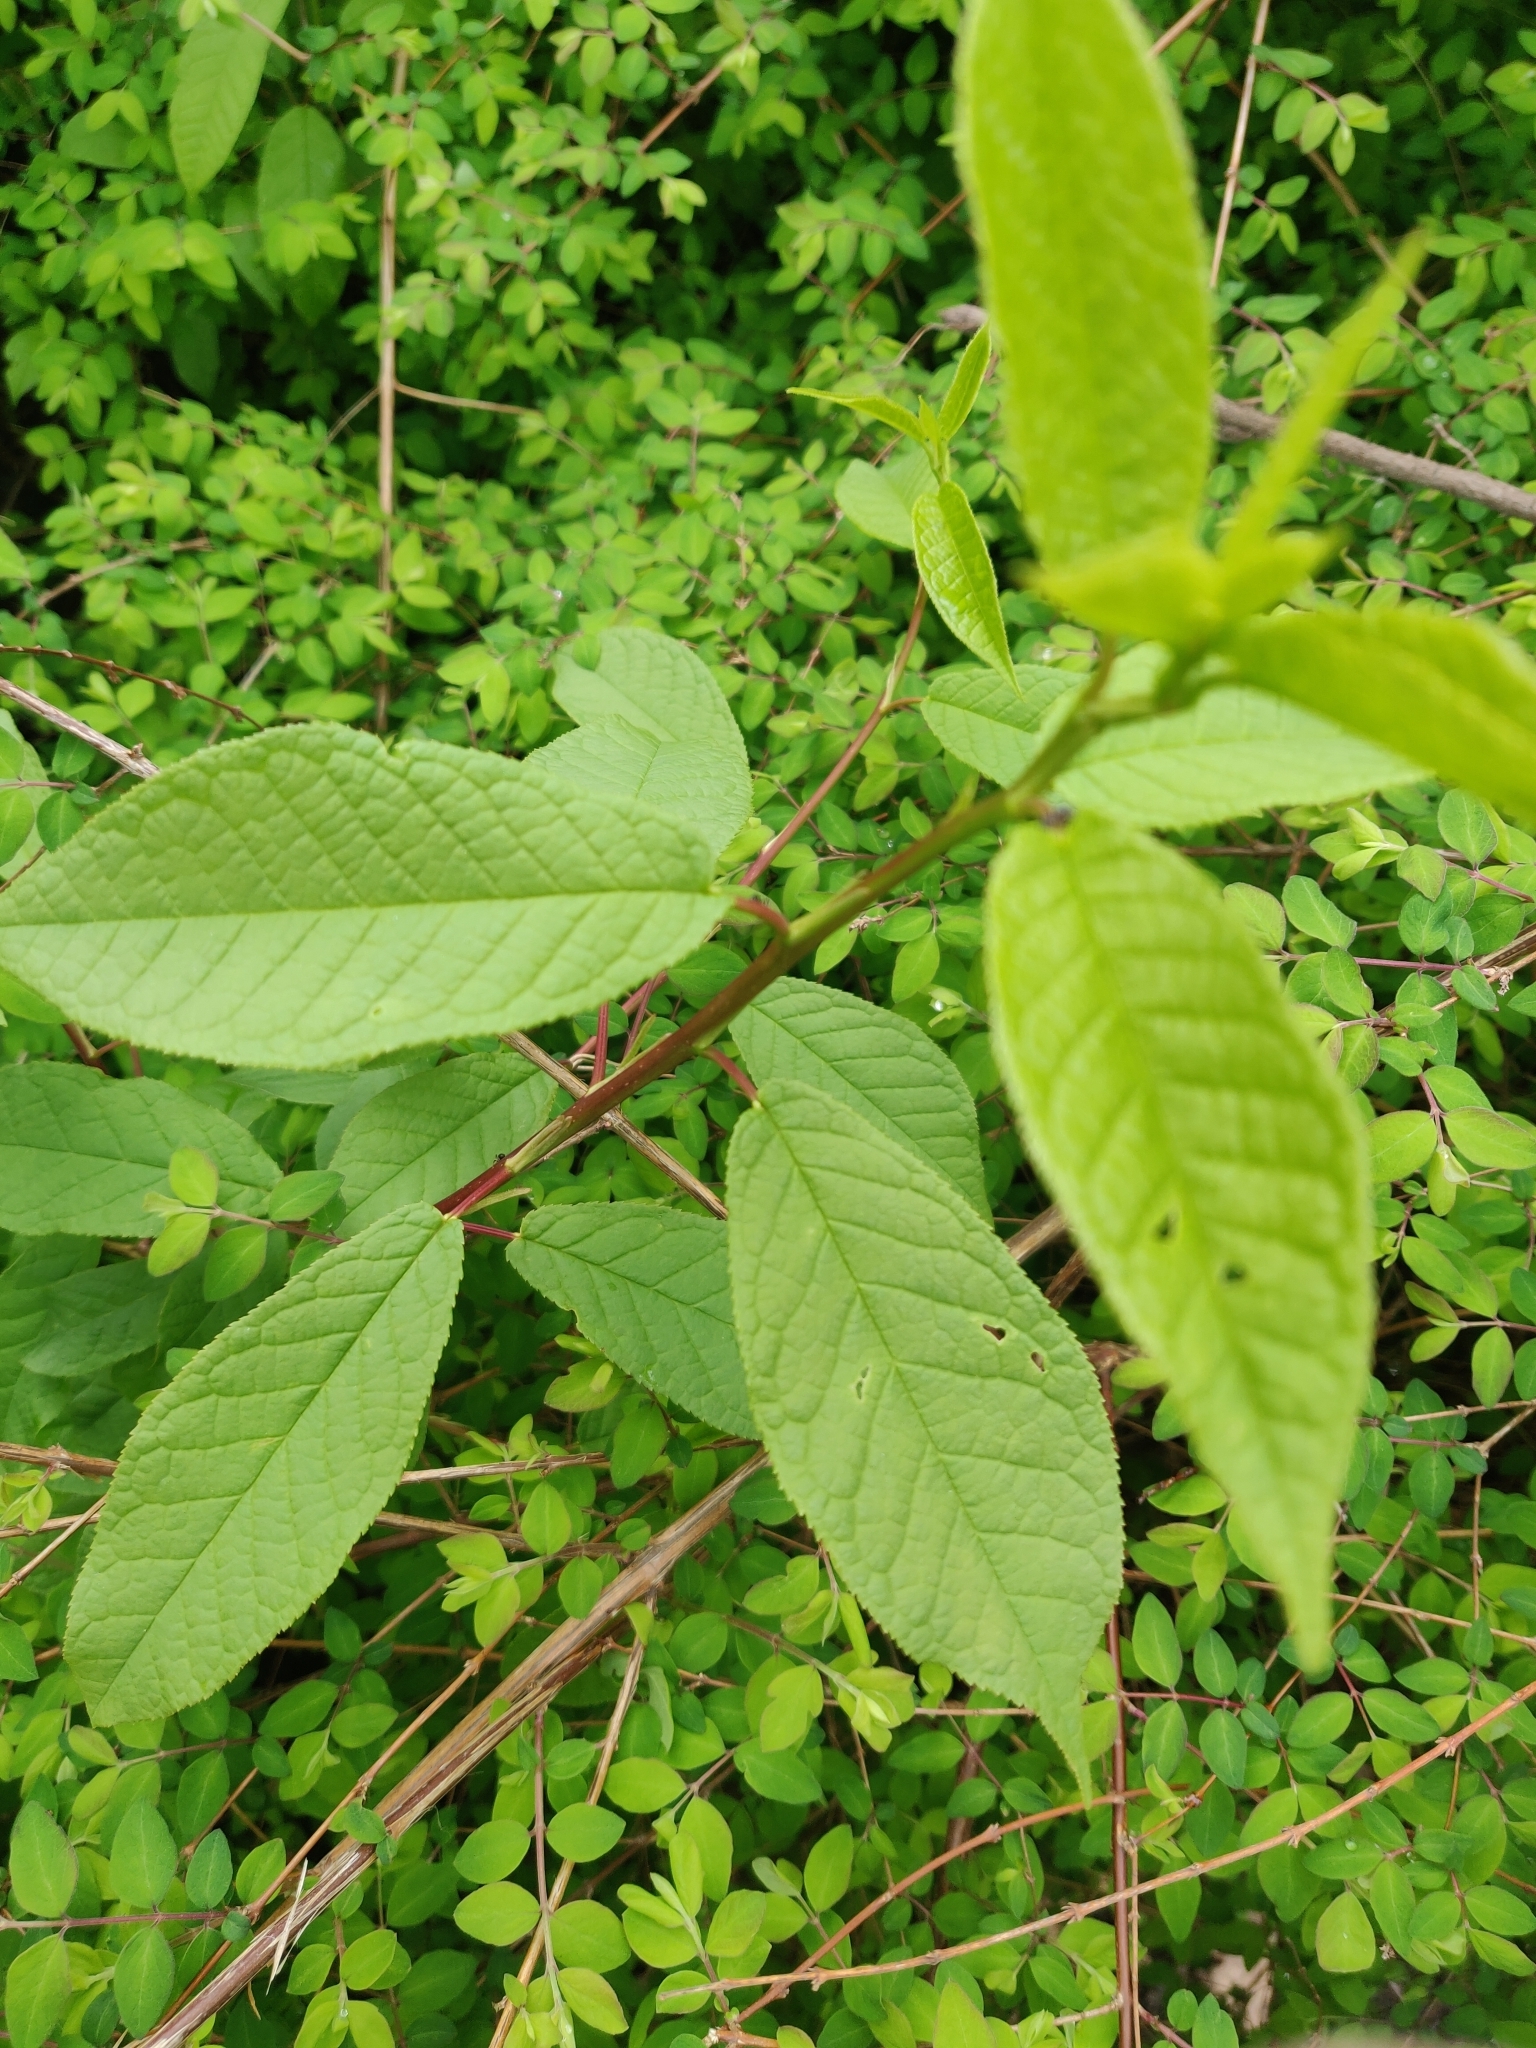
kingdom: Plantae
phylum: Tracheophyta
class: Magnoliopsida
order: Rosales
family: Rosaceae
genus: Prunus
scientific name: Prunus padus
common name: Bird cherry
